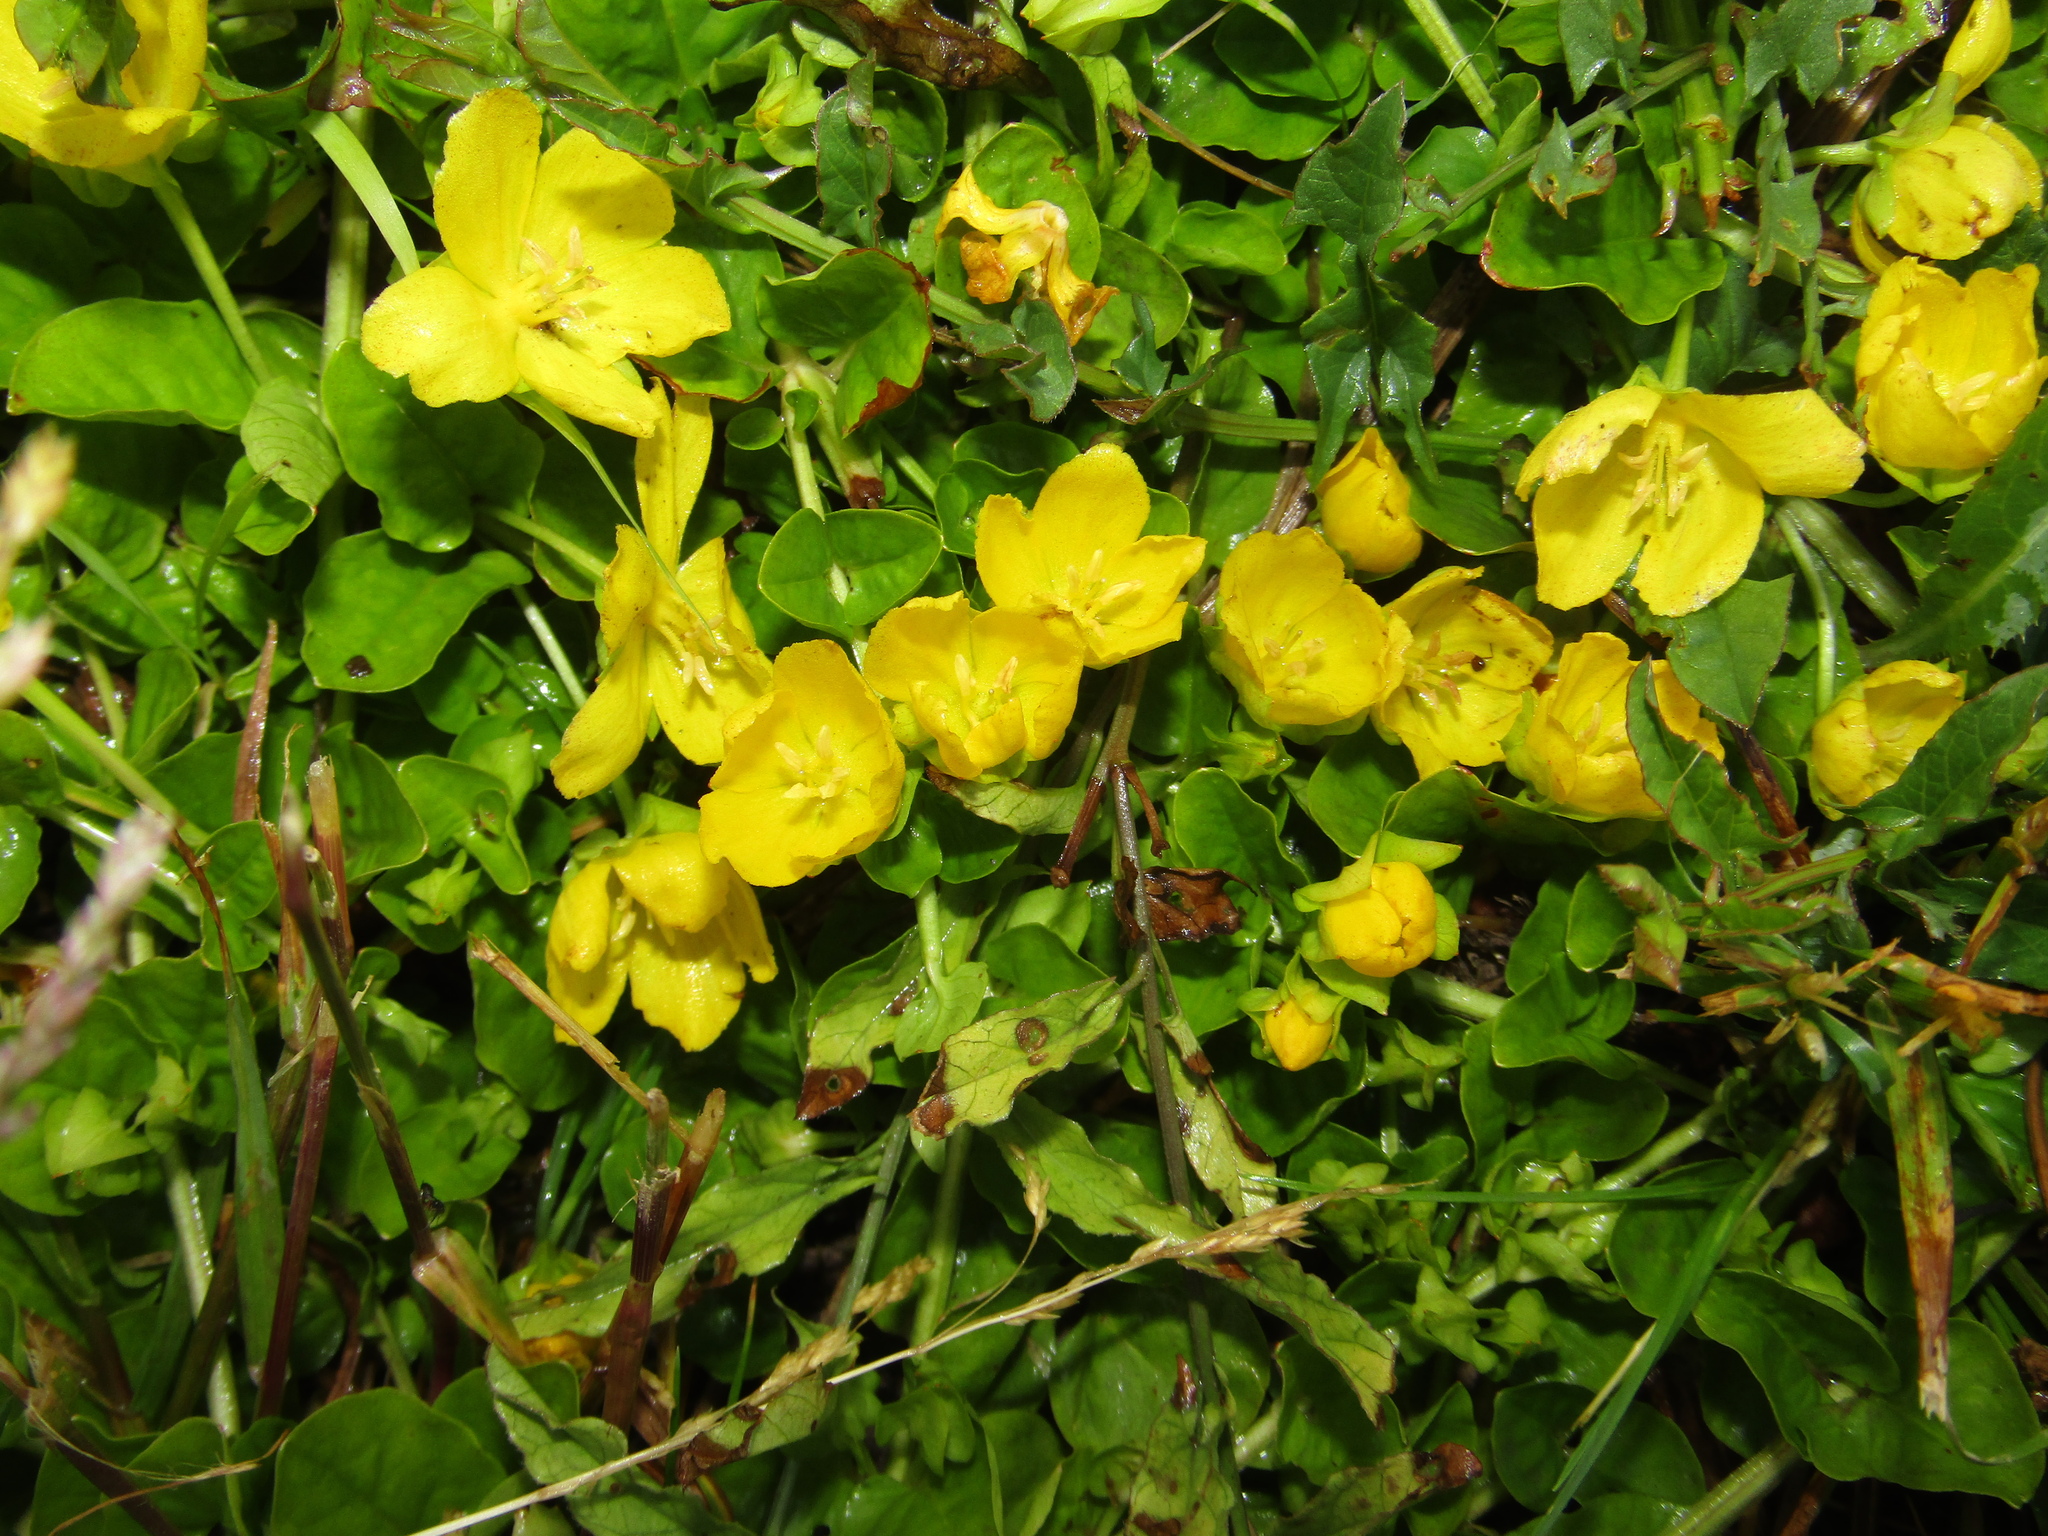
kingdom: Plantae
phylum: Tracheophyta
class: Magnoliopsida
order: Ericales
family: Primulaceae
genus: Lysimachia
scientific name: Lysimachia nummularia
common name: Moneywort
